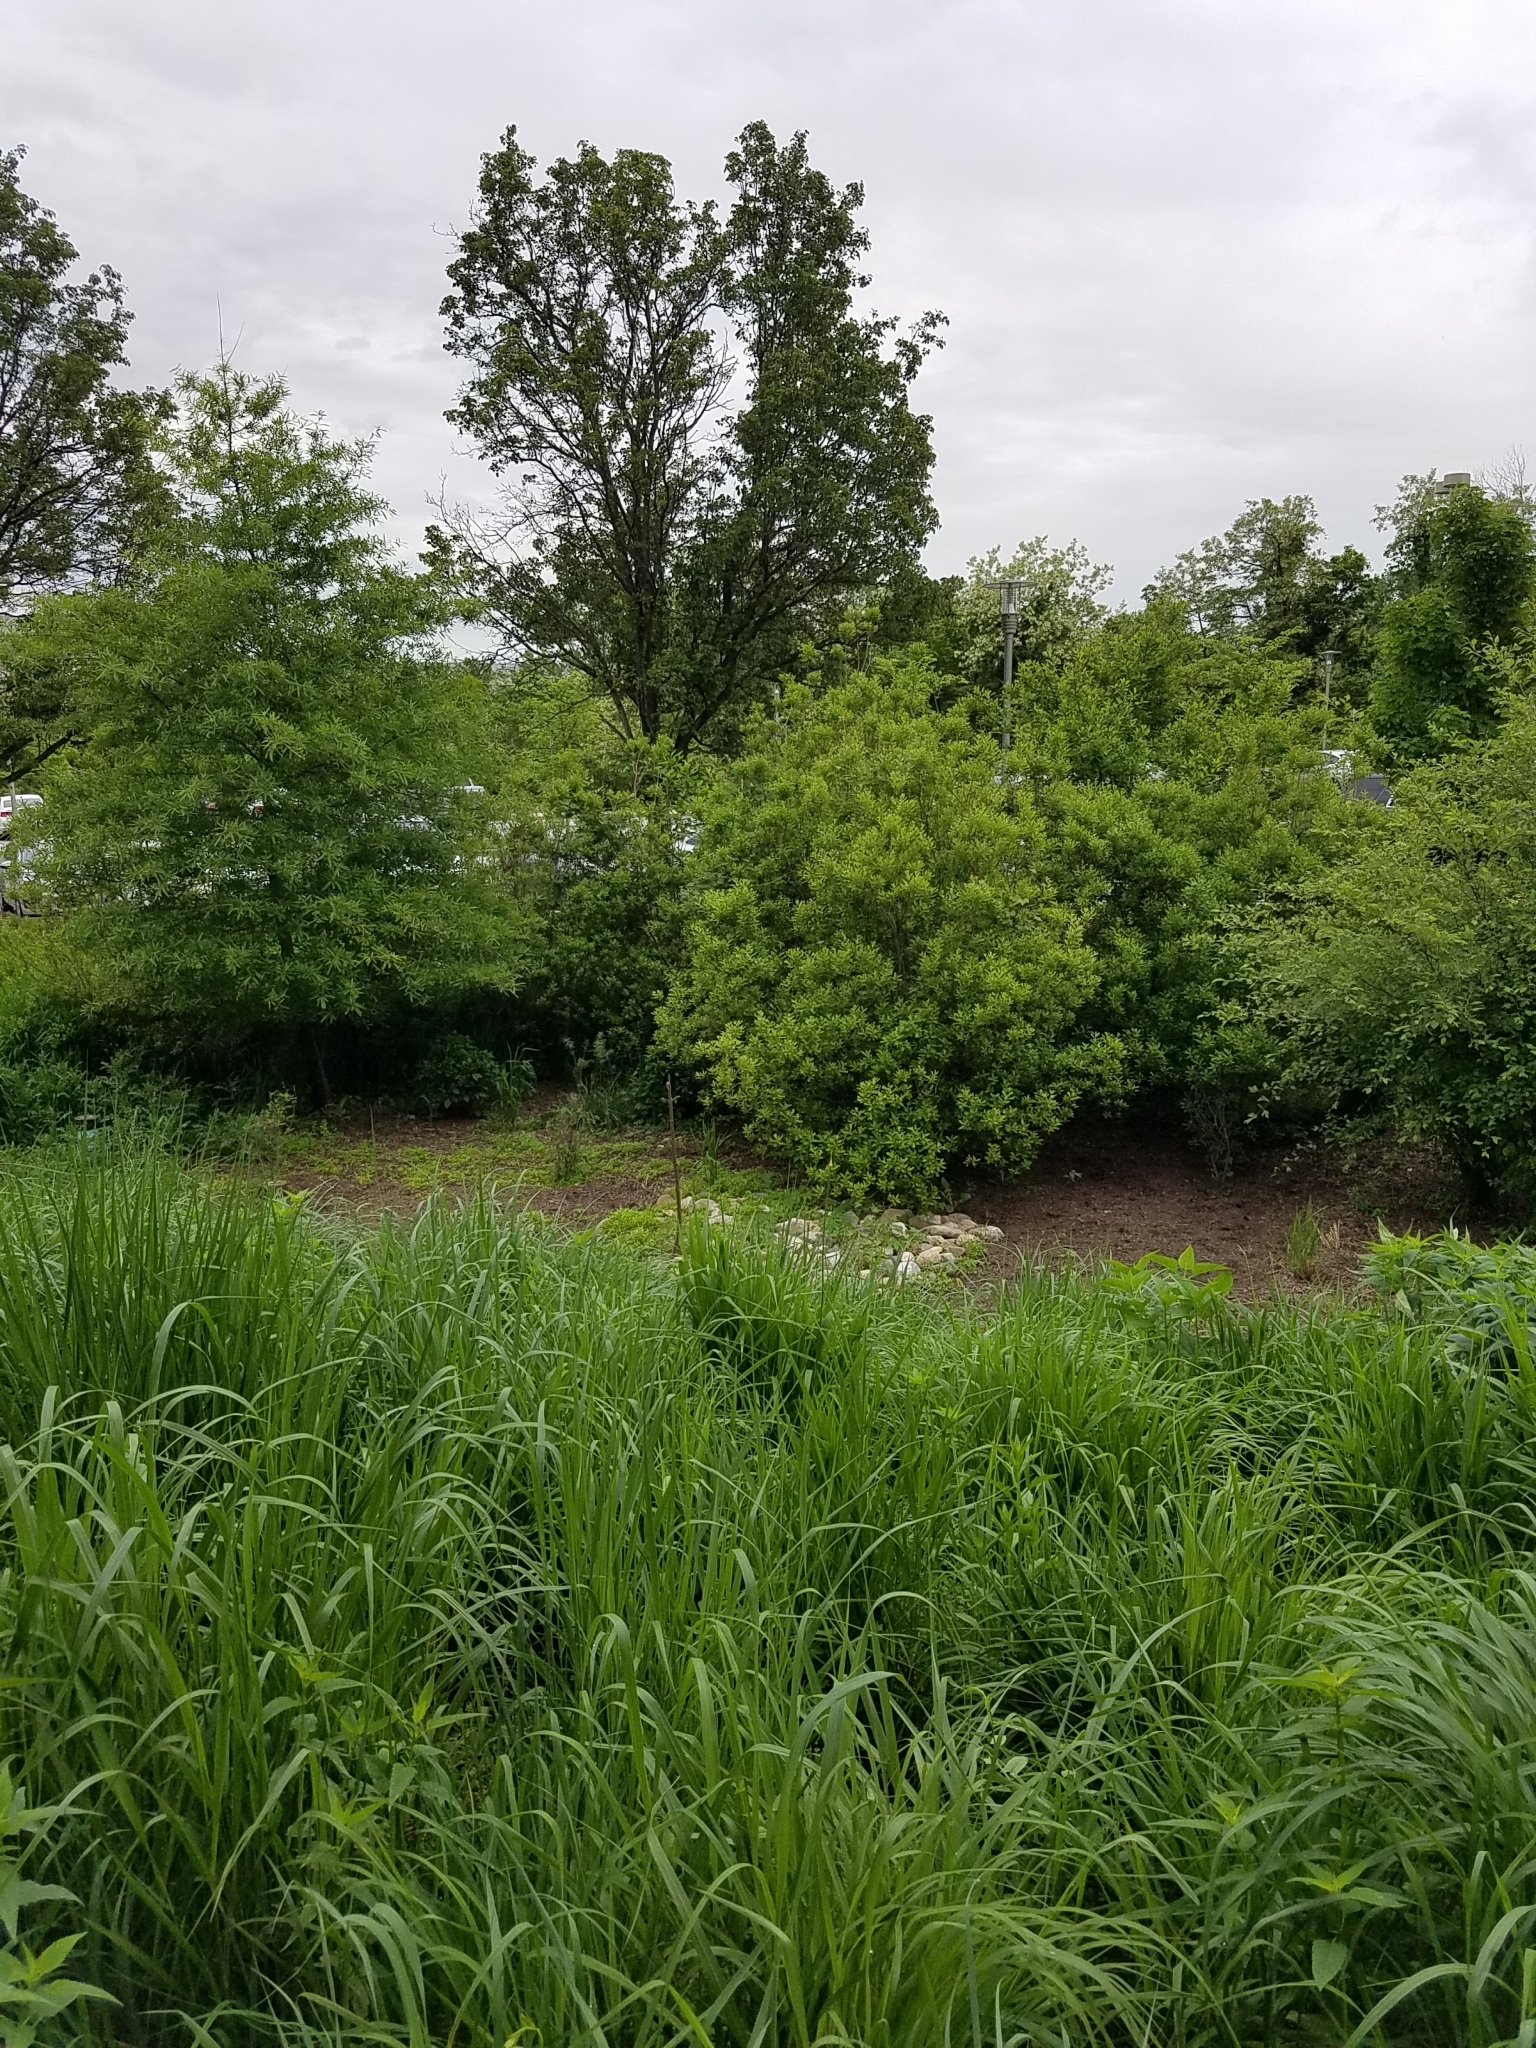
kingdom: Animalia
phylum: Chordata
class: Amphibia
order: Anura
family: Hylidae
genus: Dryophytes
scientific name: Dryophytes chrysoscelis
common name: Cope's gray treefrog
